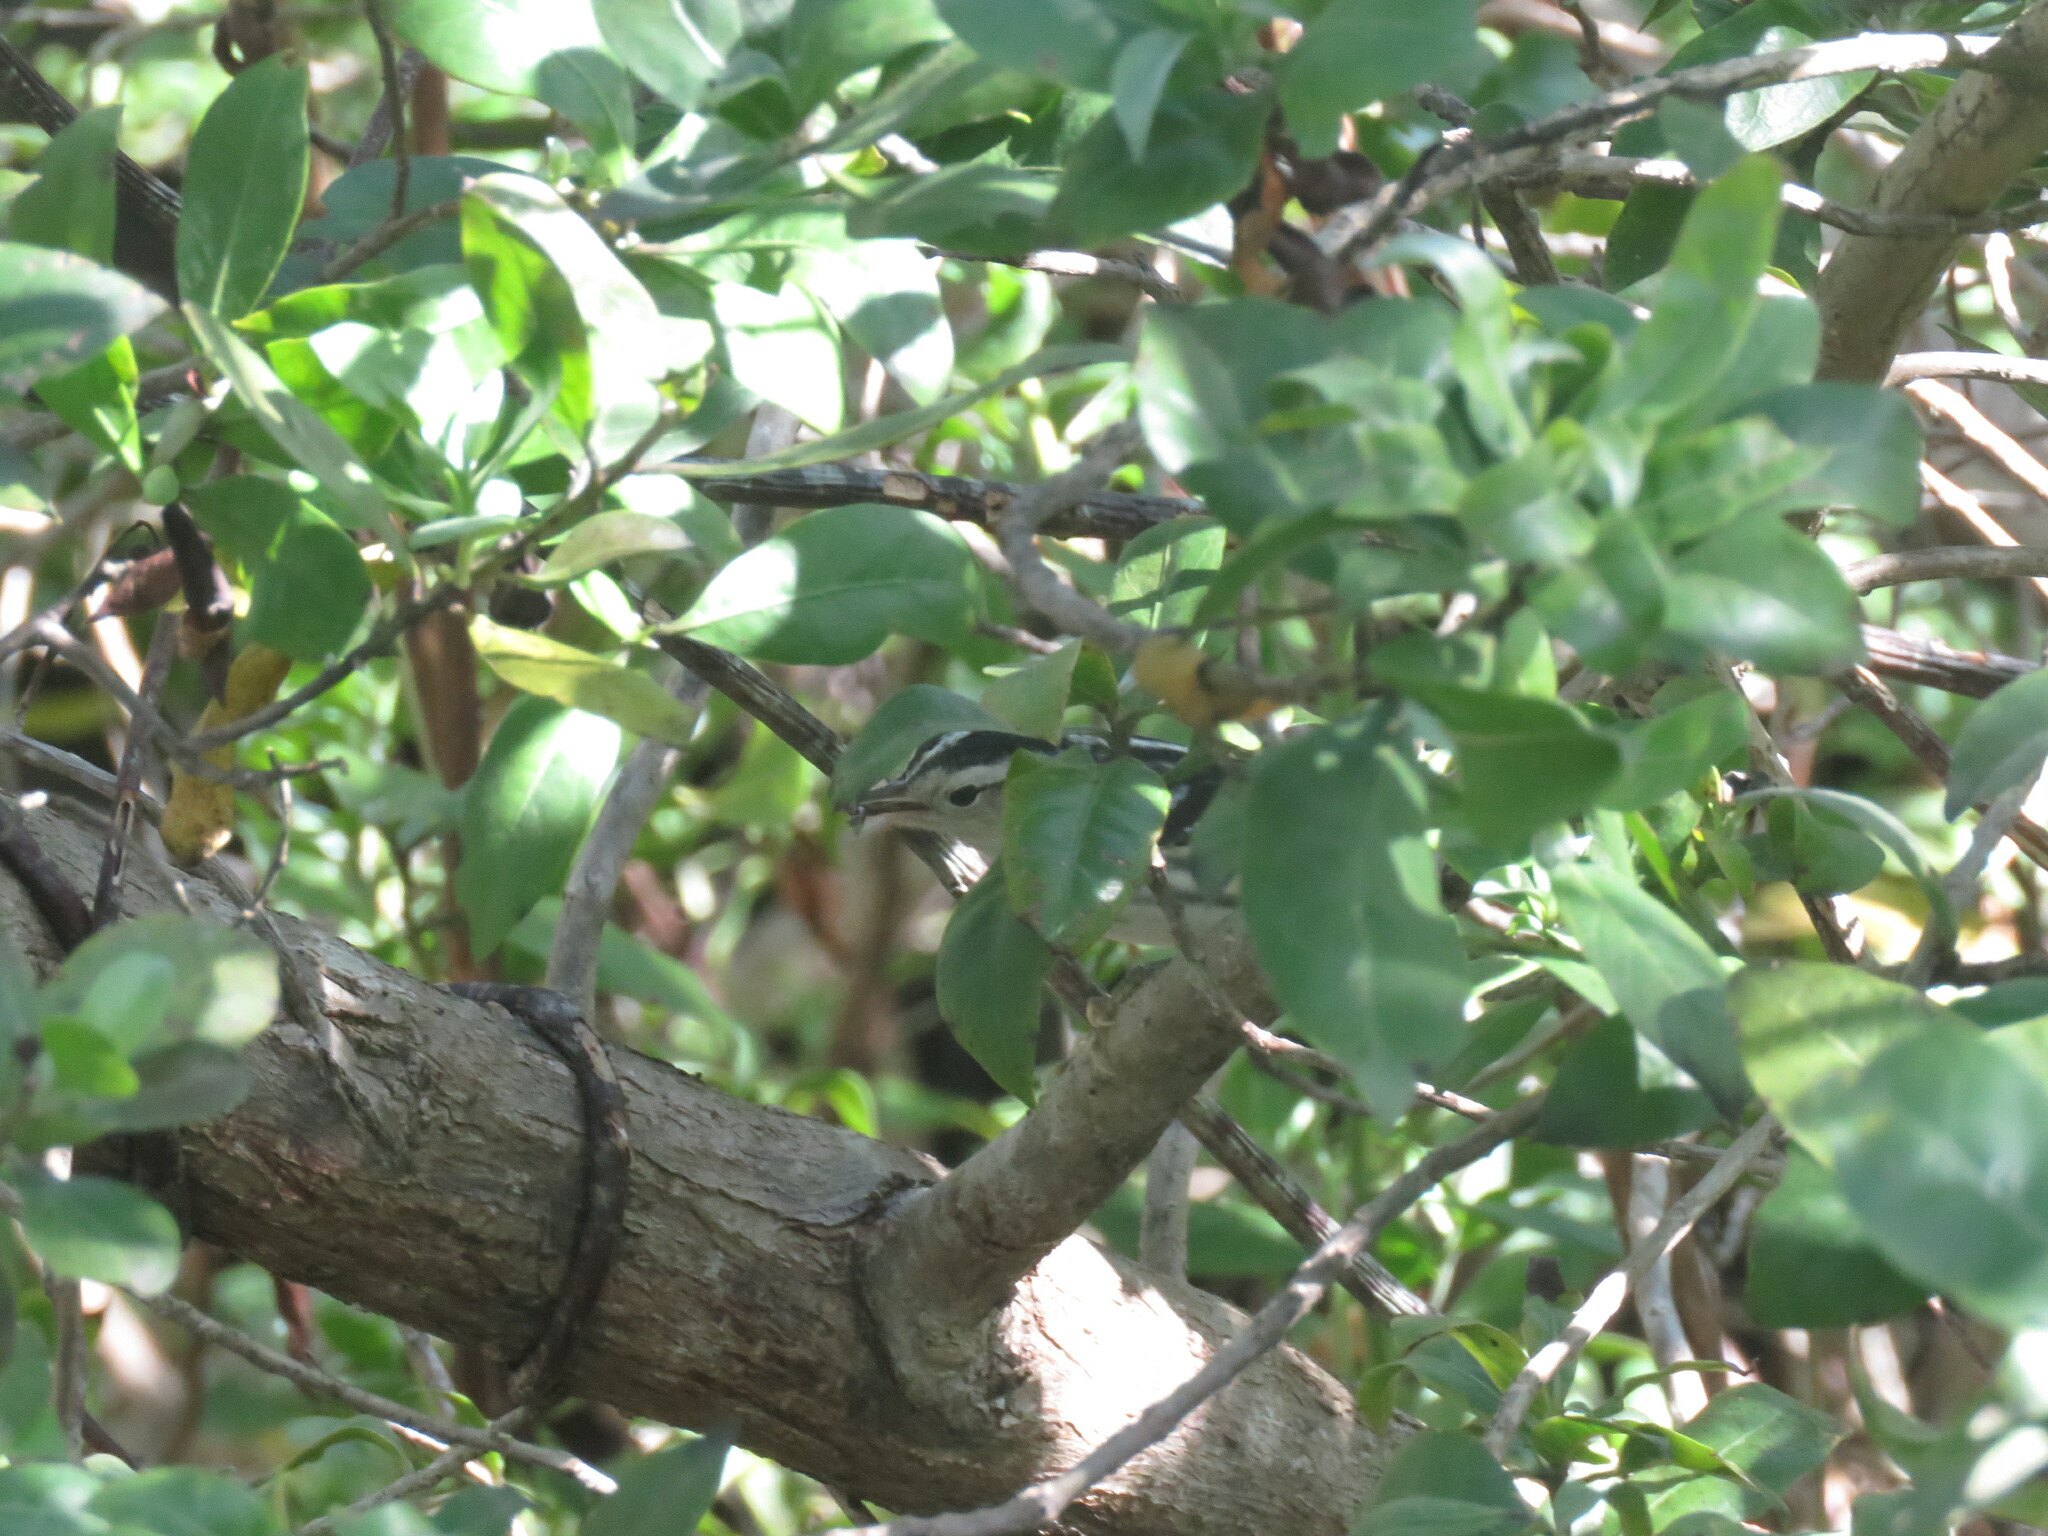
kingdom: Animalia
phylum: Chordata
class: Aves
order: Passeriformes
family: Parulidae
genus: Mniotilta
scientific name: Mniotilta varia
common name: Black-and-white warbler
